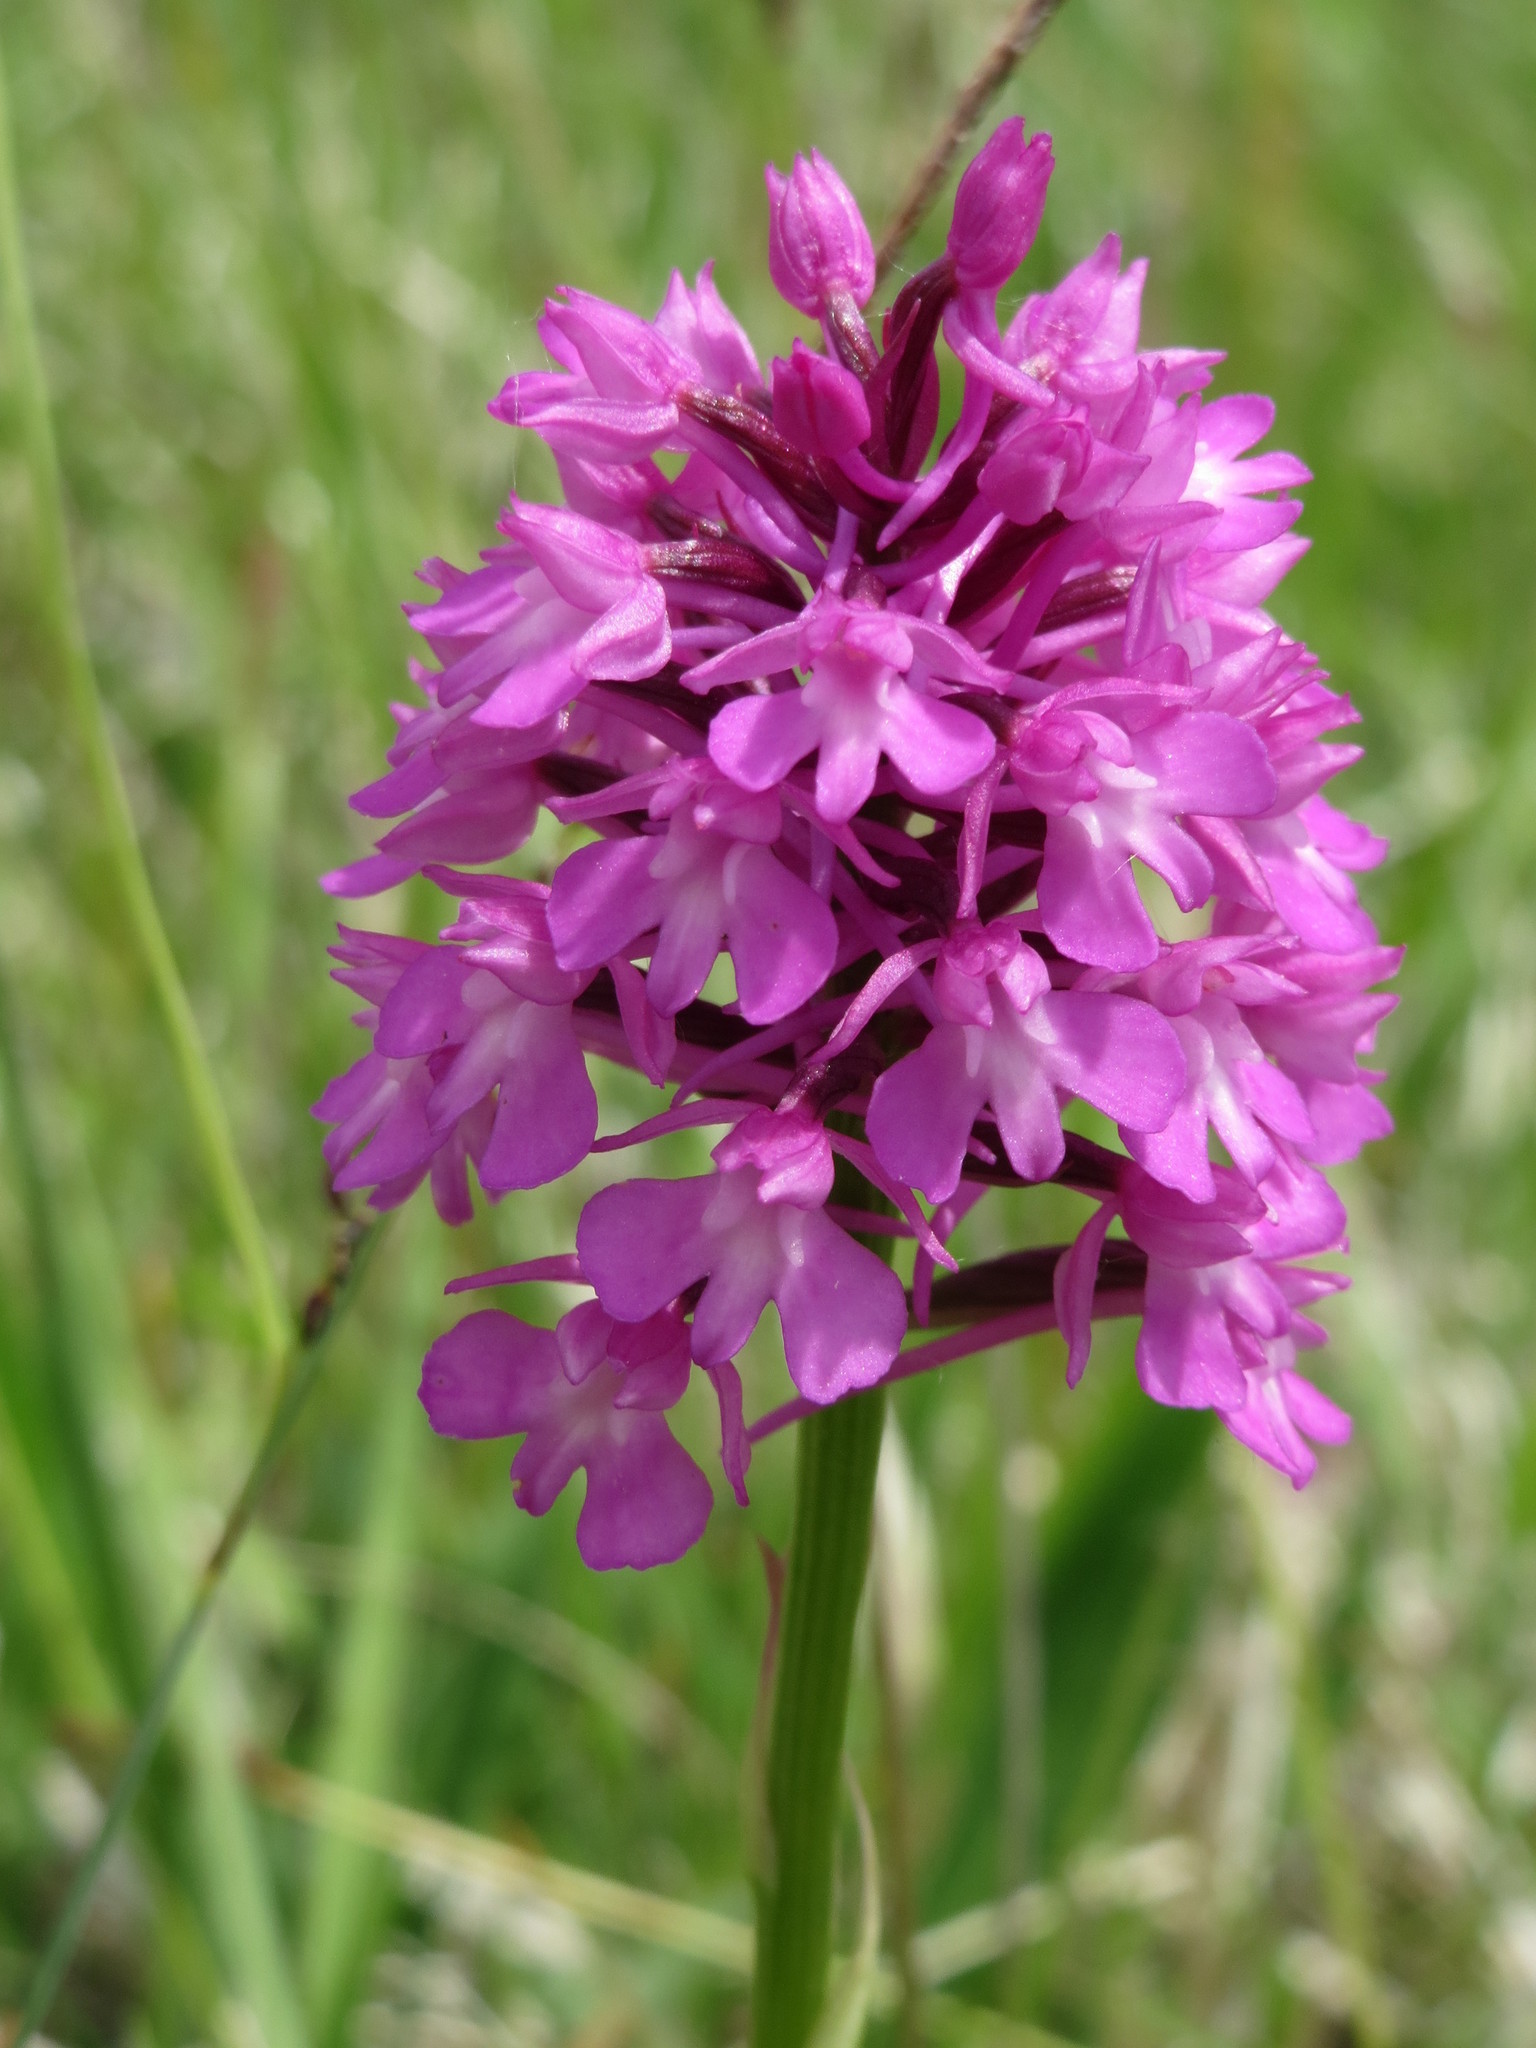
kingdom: Plantae
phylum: Tracheophyta
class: Liliopsida
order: Asparagales
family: Orchidaceae
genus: Anacamptis
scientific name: Anacamptis pyramidalis
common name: Pyramidal orchid
